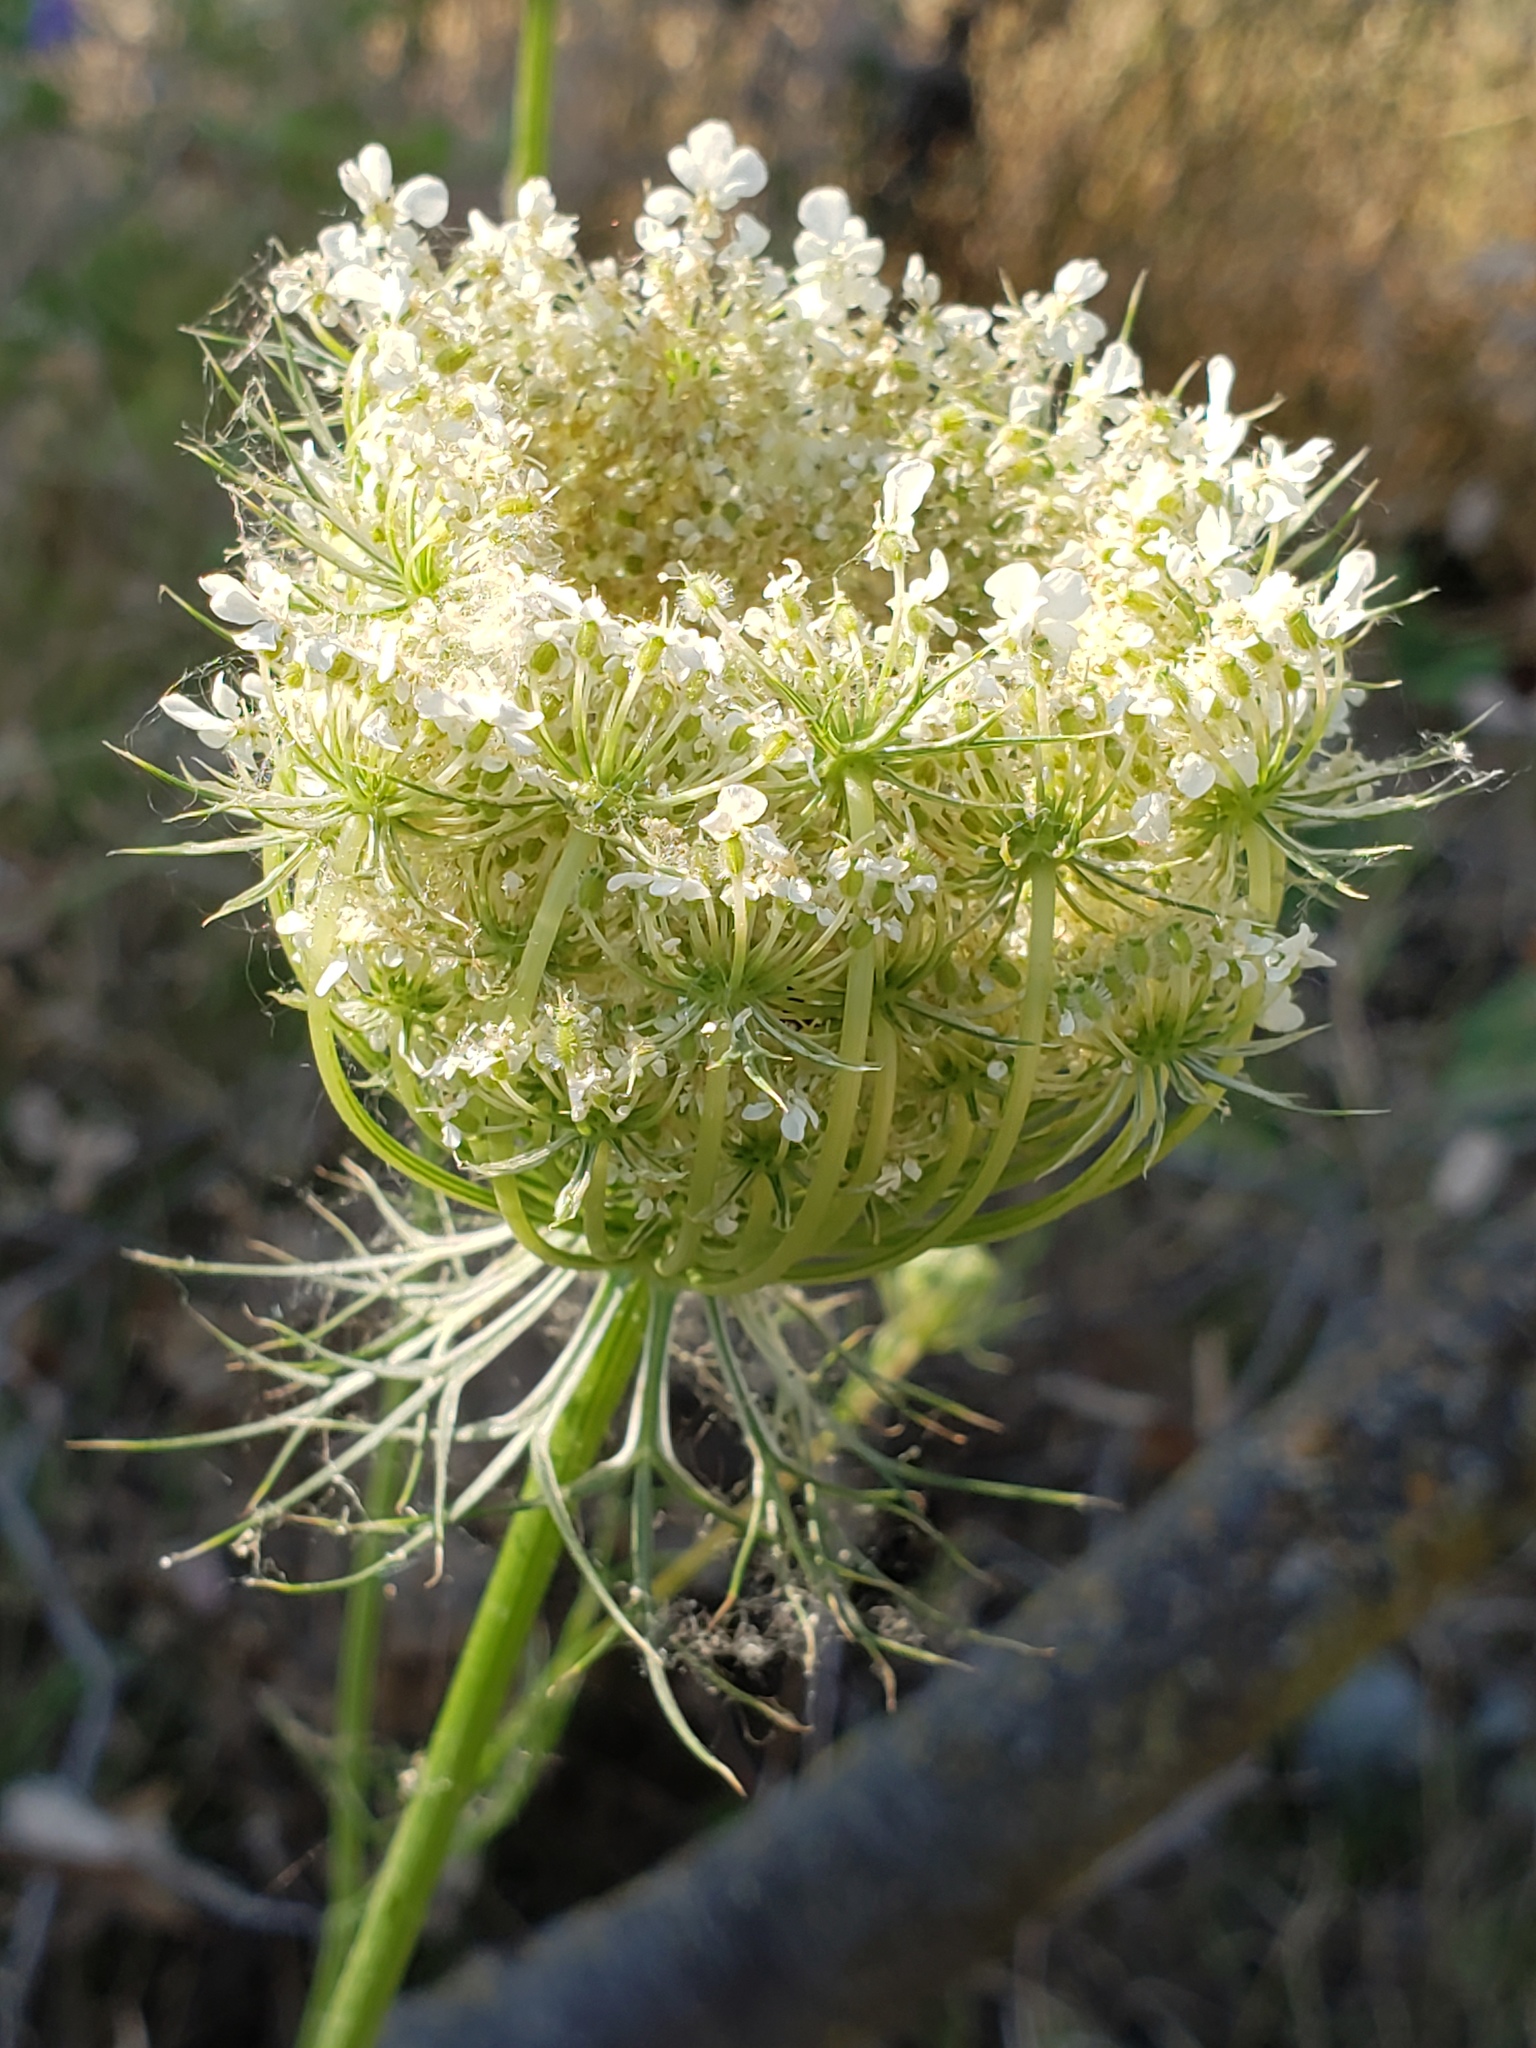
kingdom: Plantae
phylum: Tracheophyta
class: Magnoliopsida
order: Apiales
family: Apiaceae
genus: Daucus
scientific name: Daucus carota
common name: Wild carrot
